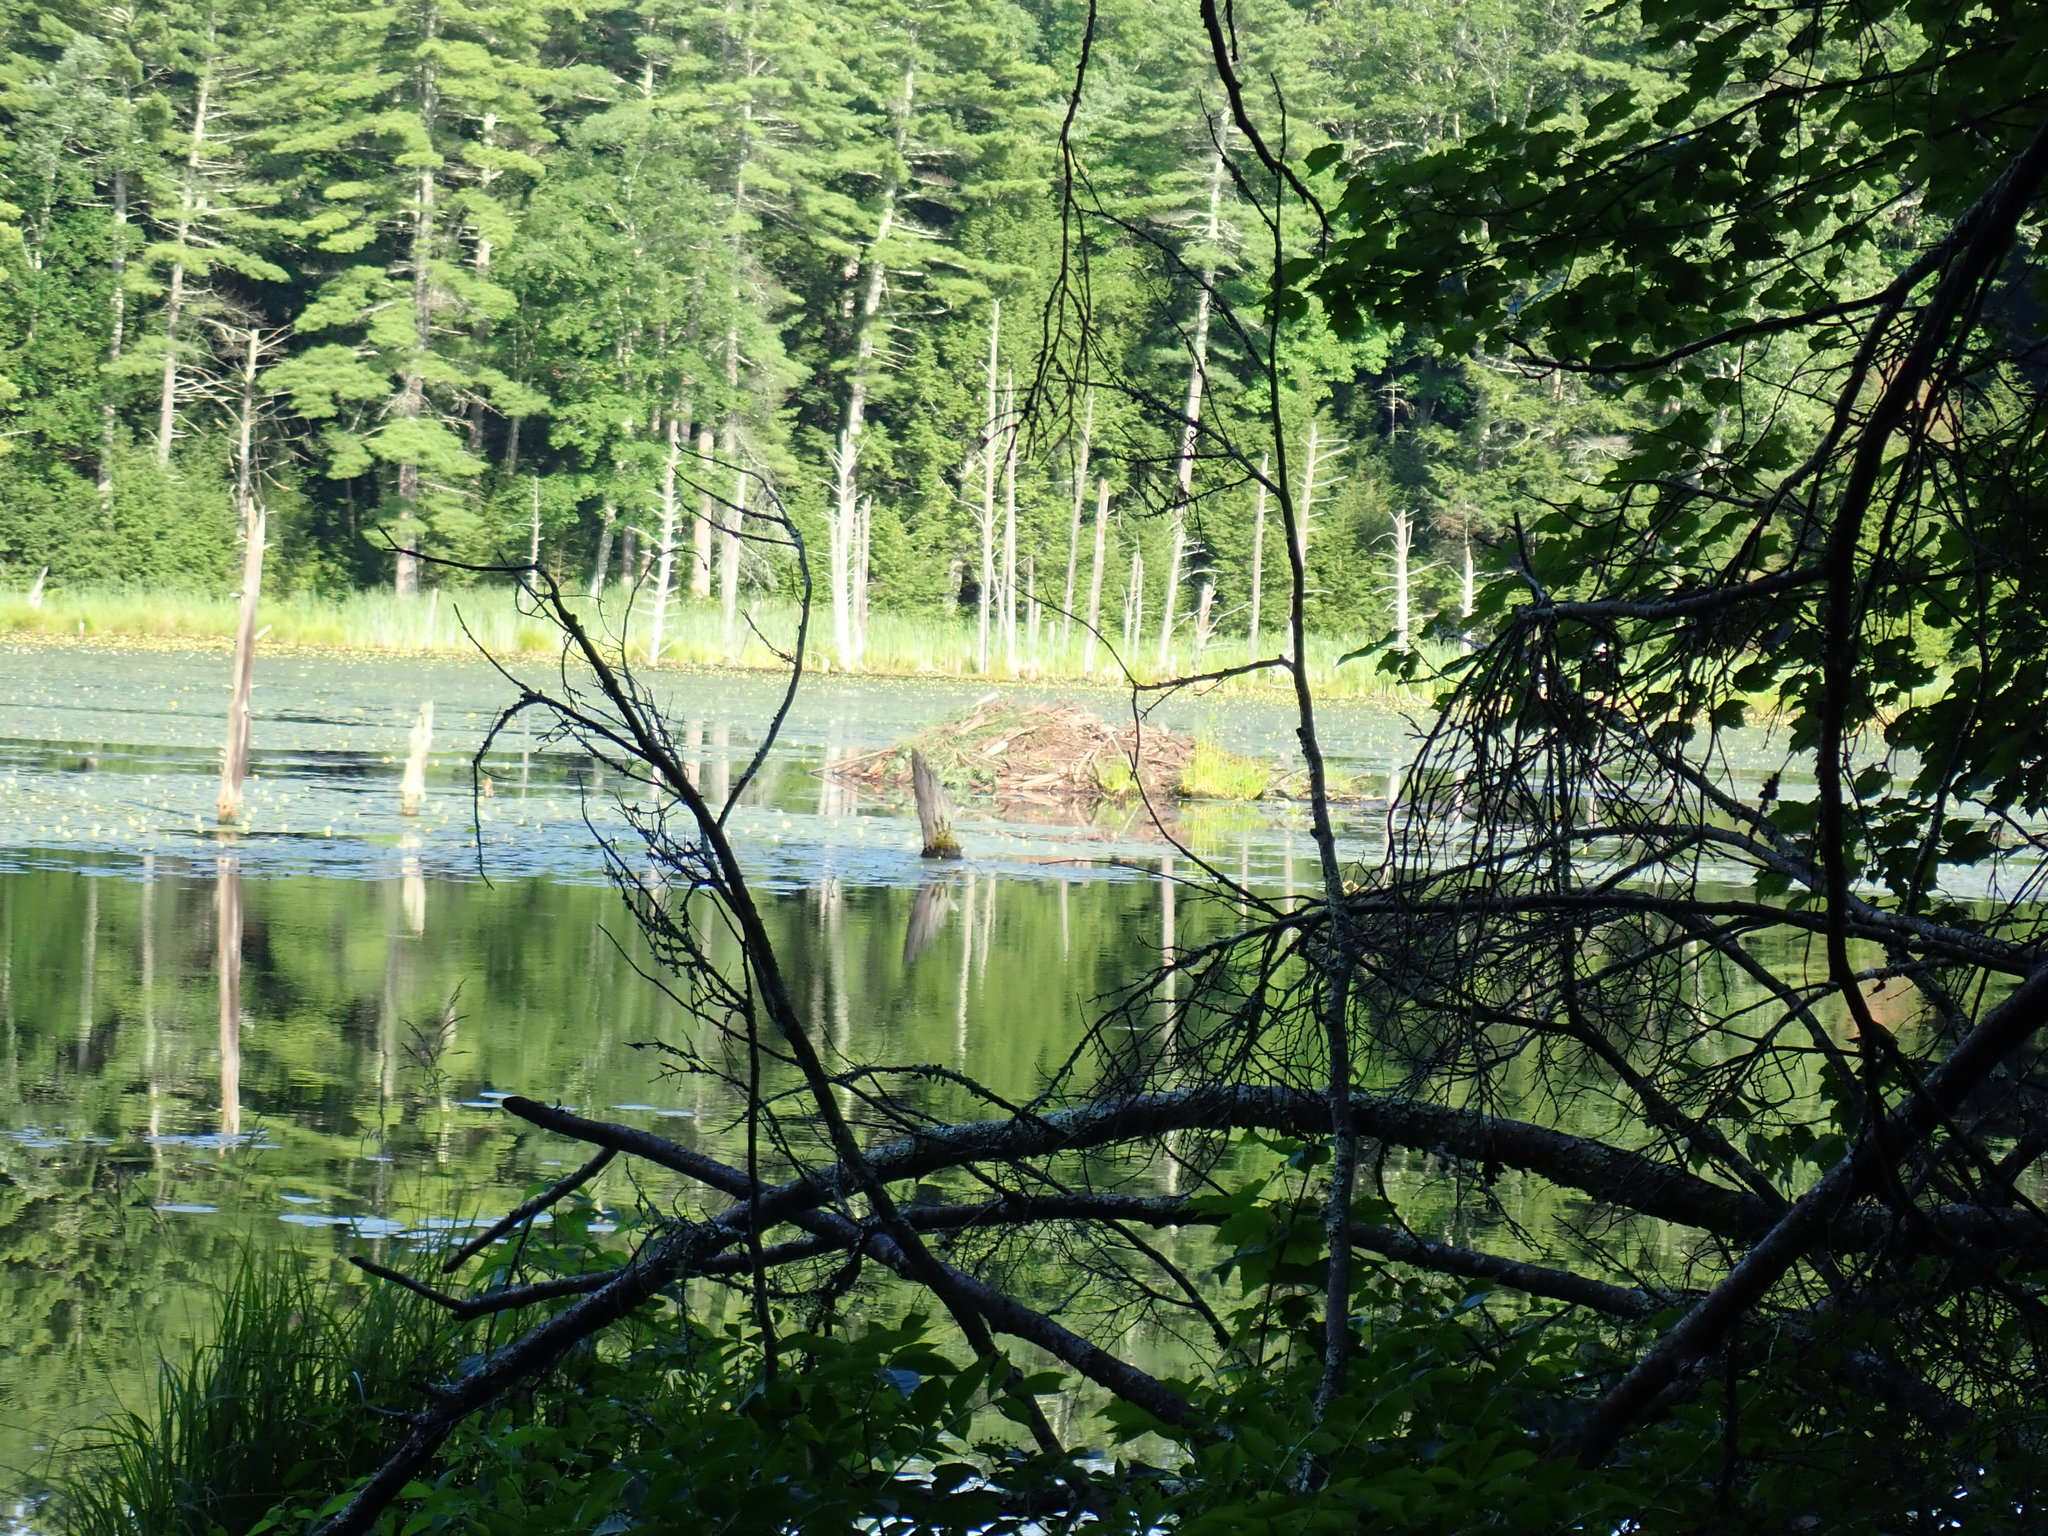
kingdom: Animalia
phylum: Chordata
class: Mammalia
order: Rodentia
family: Castoridae
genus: Castor
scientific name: Castor canadensis
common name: American beaver
